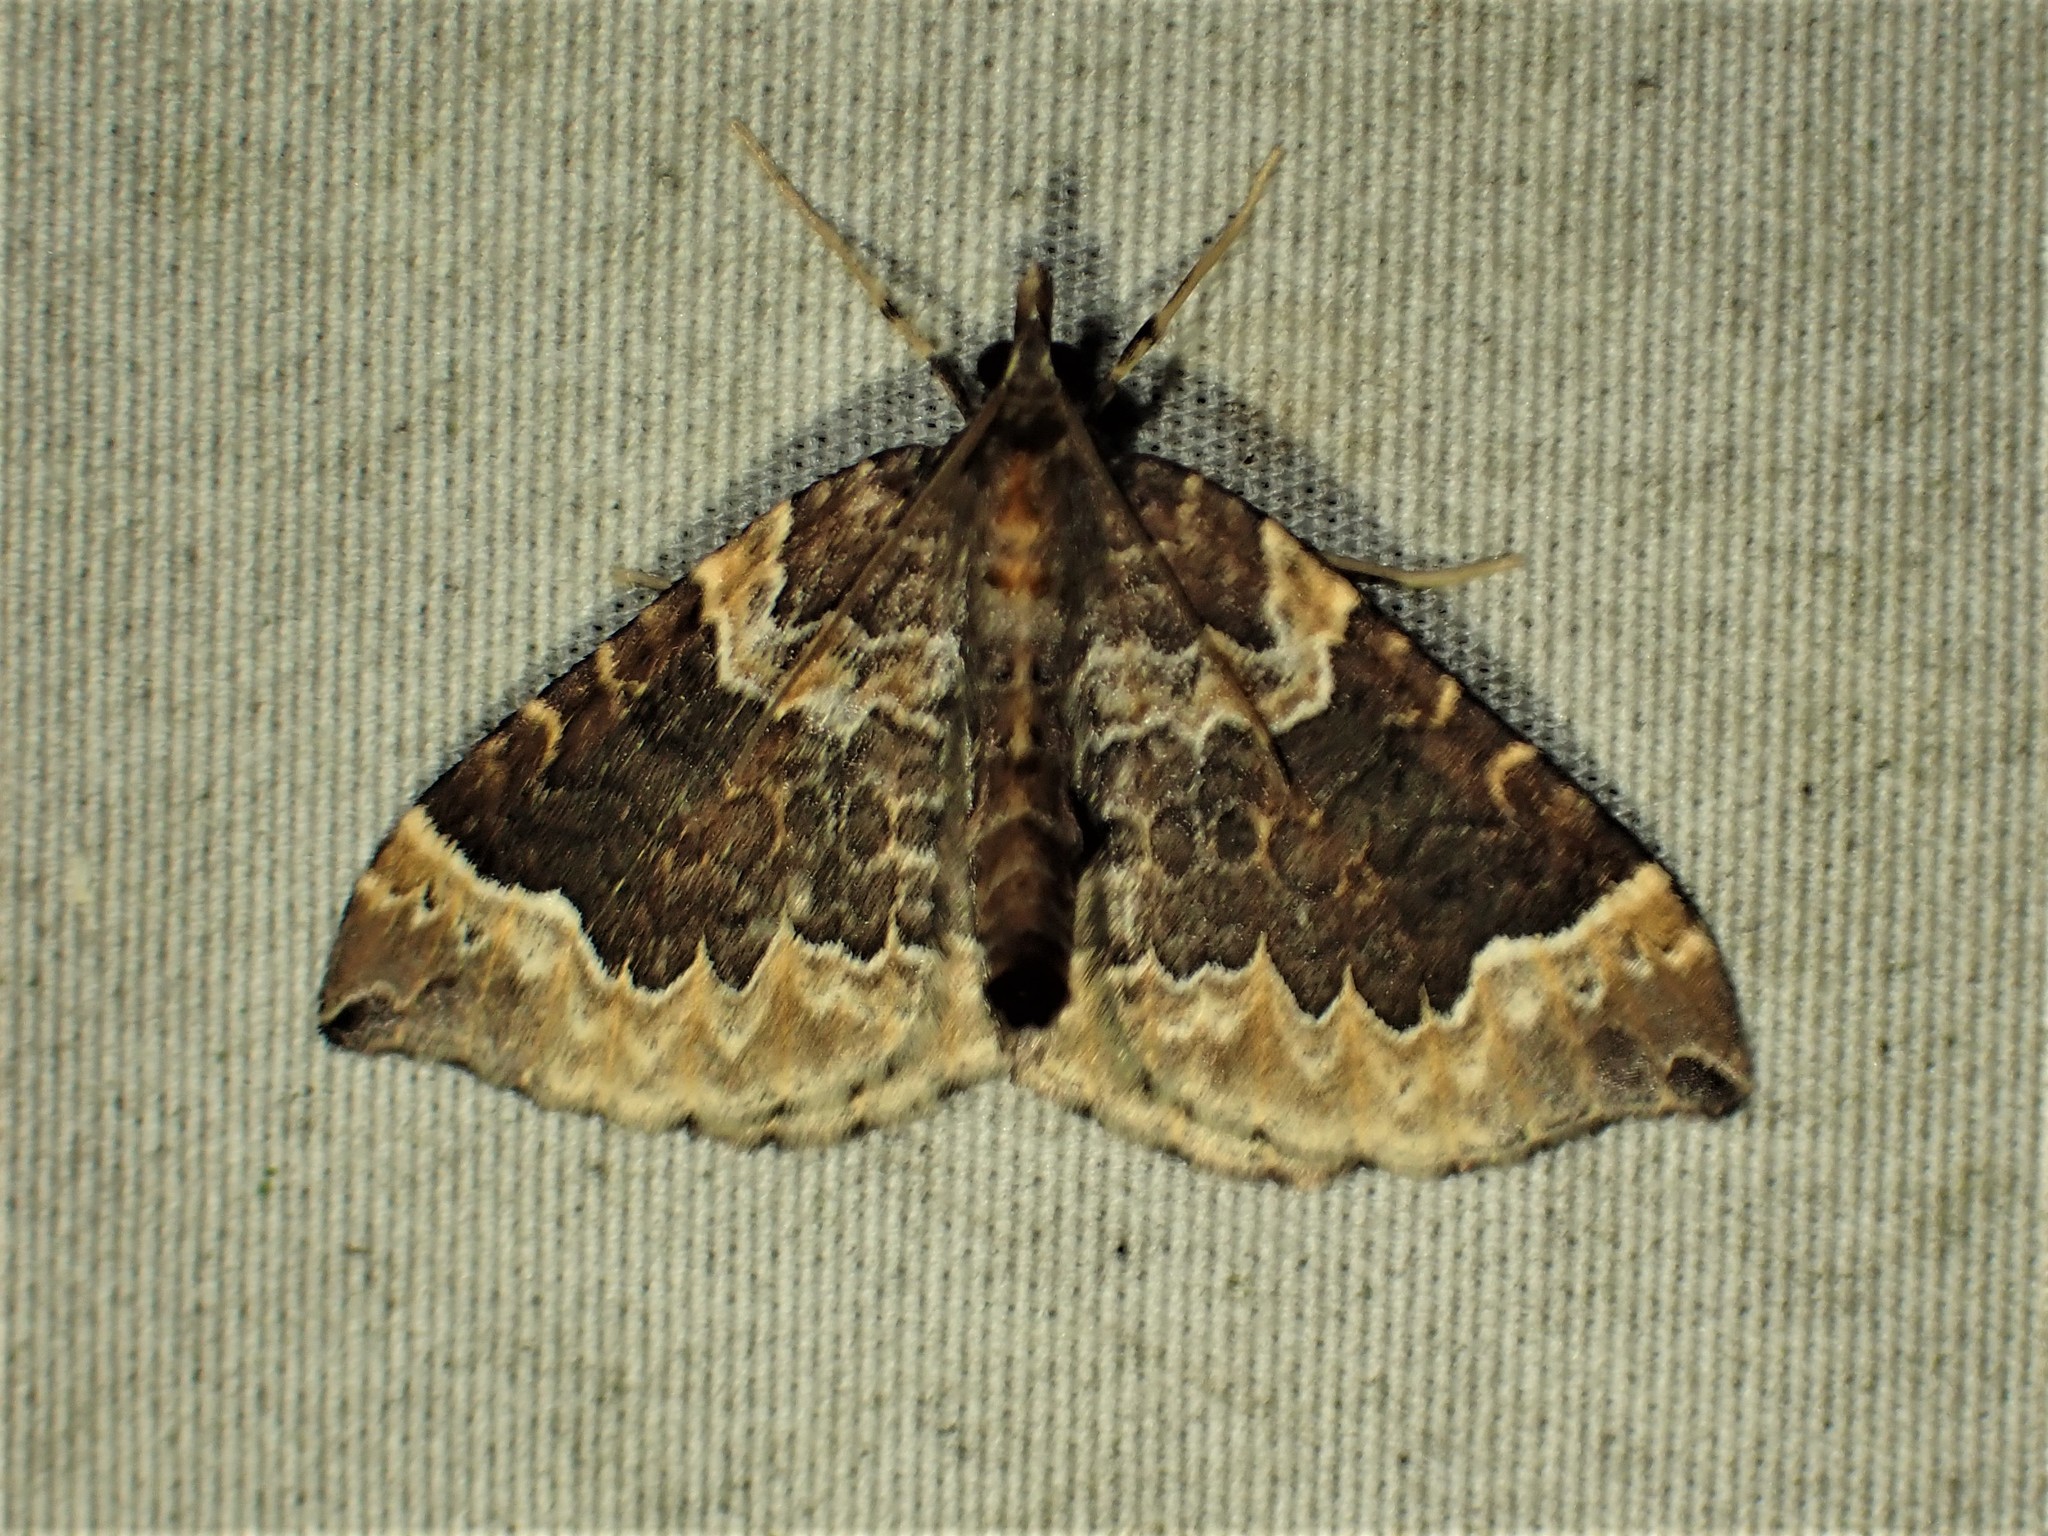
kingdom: Animalia
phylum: Arthropoda
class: Insecta
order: Lepidoptera
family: Geometridae
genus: Eulithis
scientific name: Eulithis flavibrunneata
